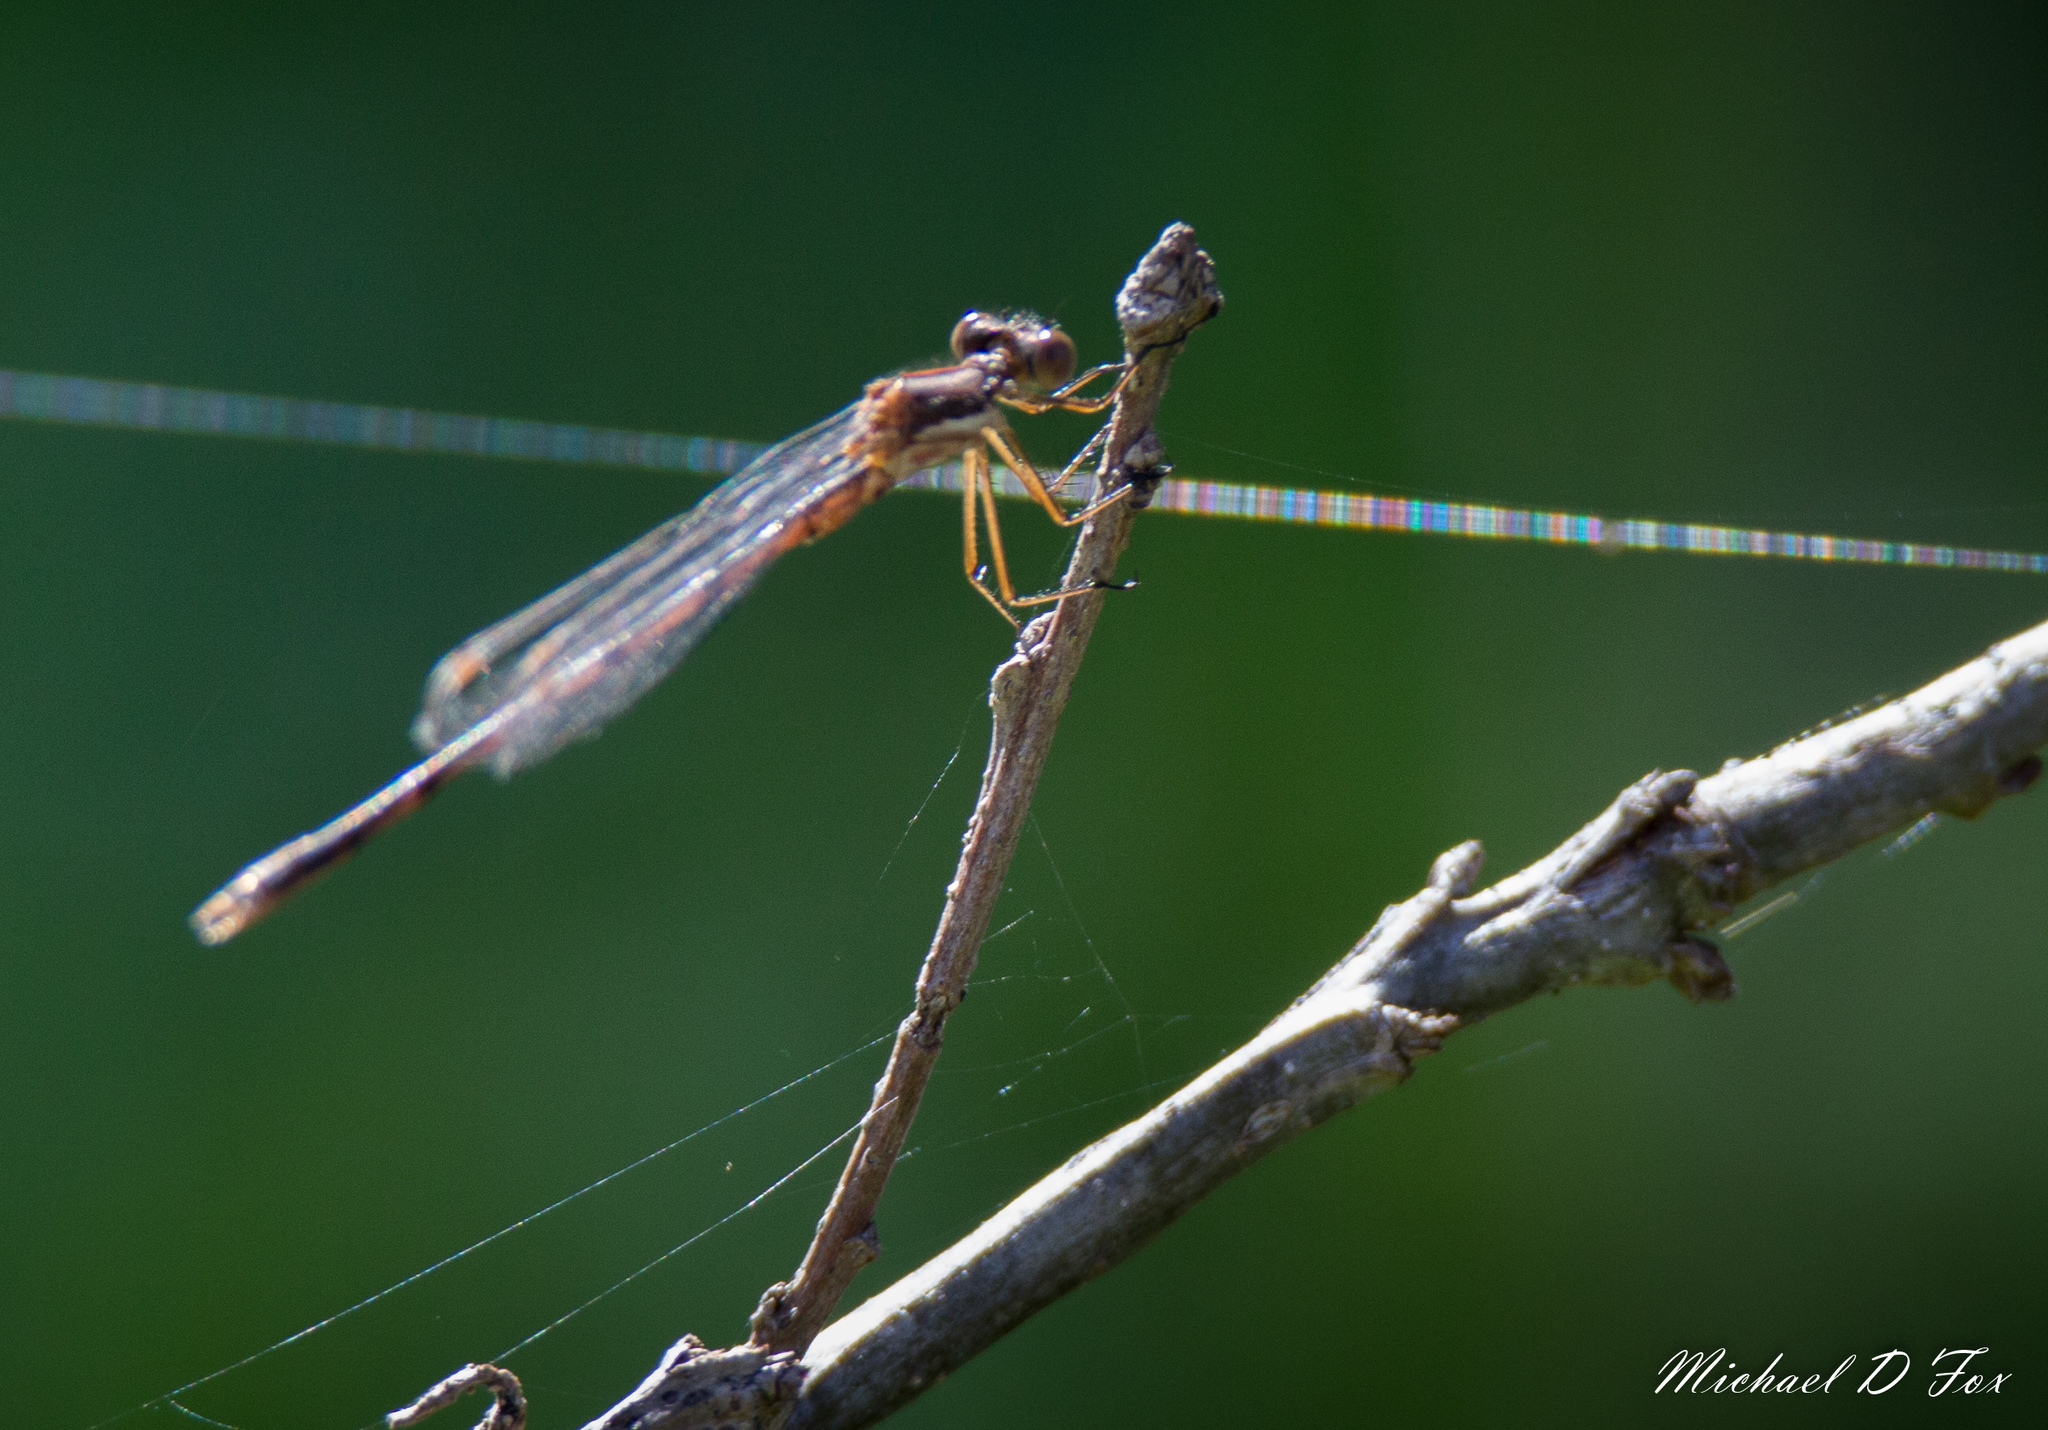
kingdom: Animalia
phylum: Arthropoda
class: Insecta
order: Odonata
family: Lestidae
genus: Lestes
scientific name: Lestes australis
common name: Southern spreadwing
